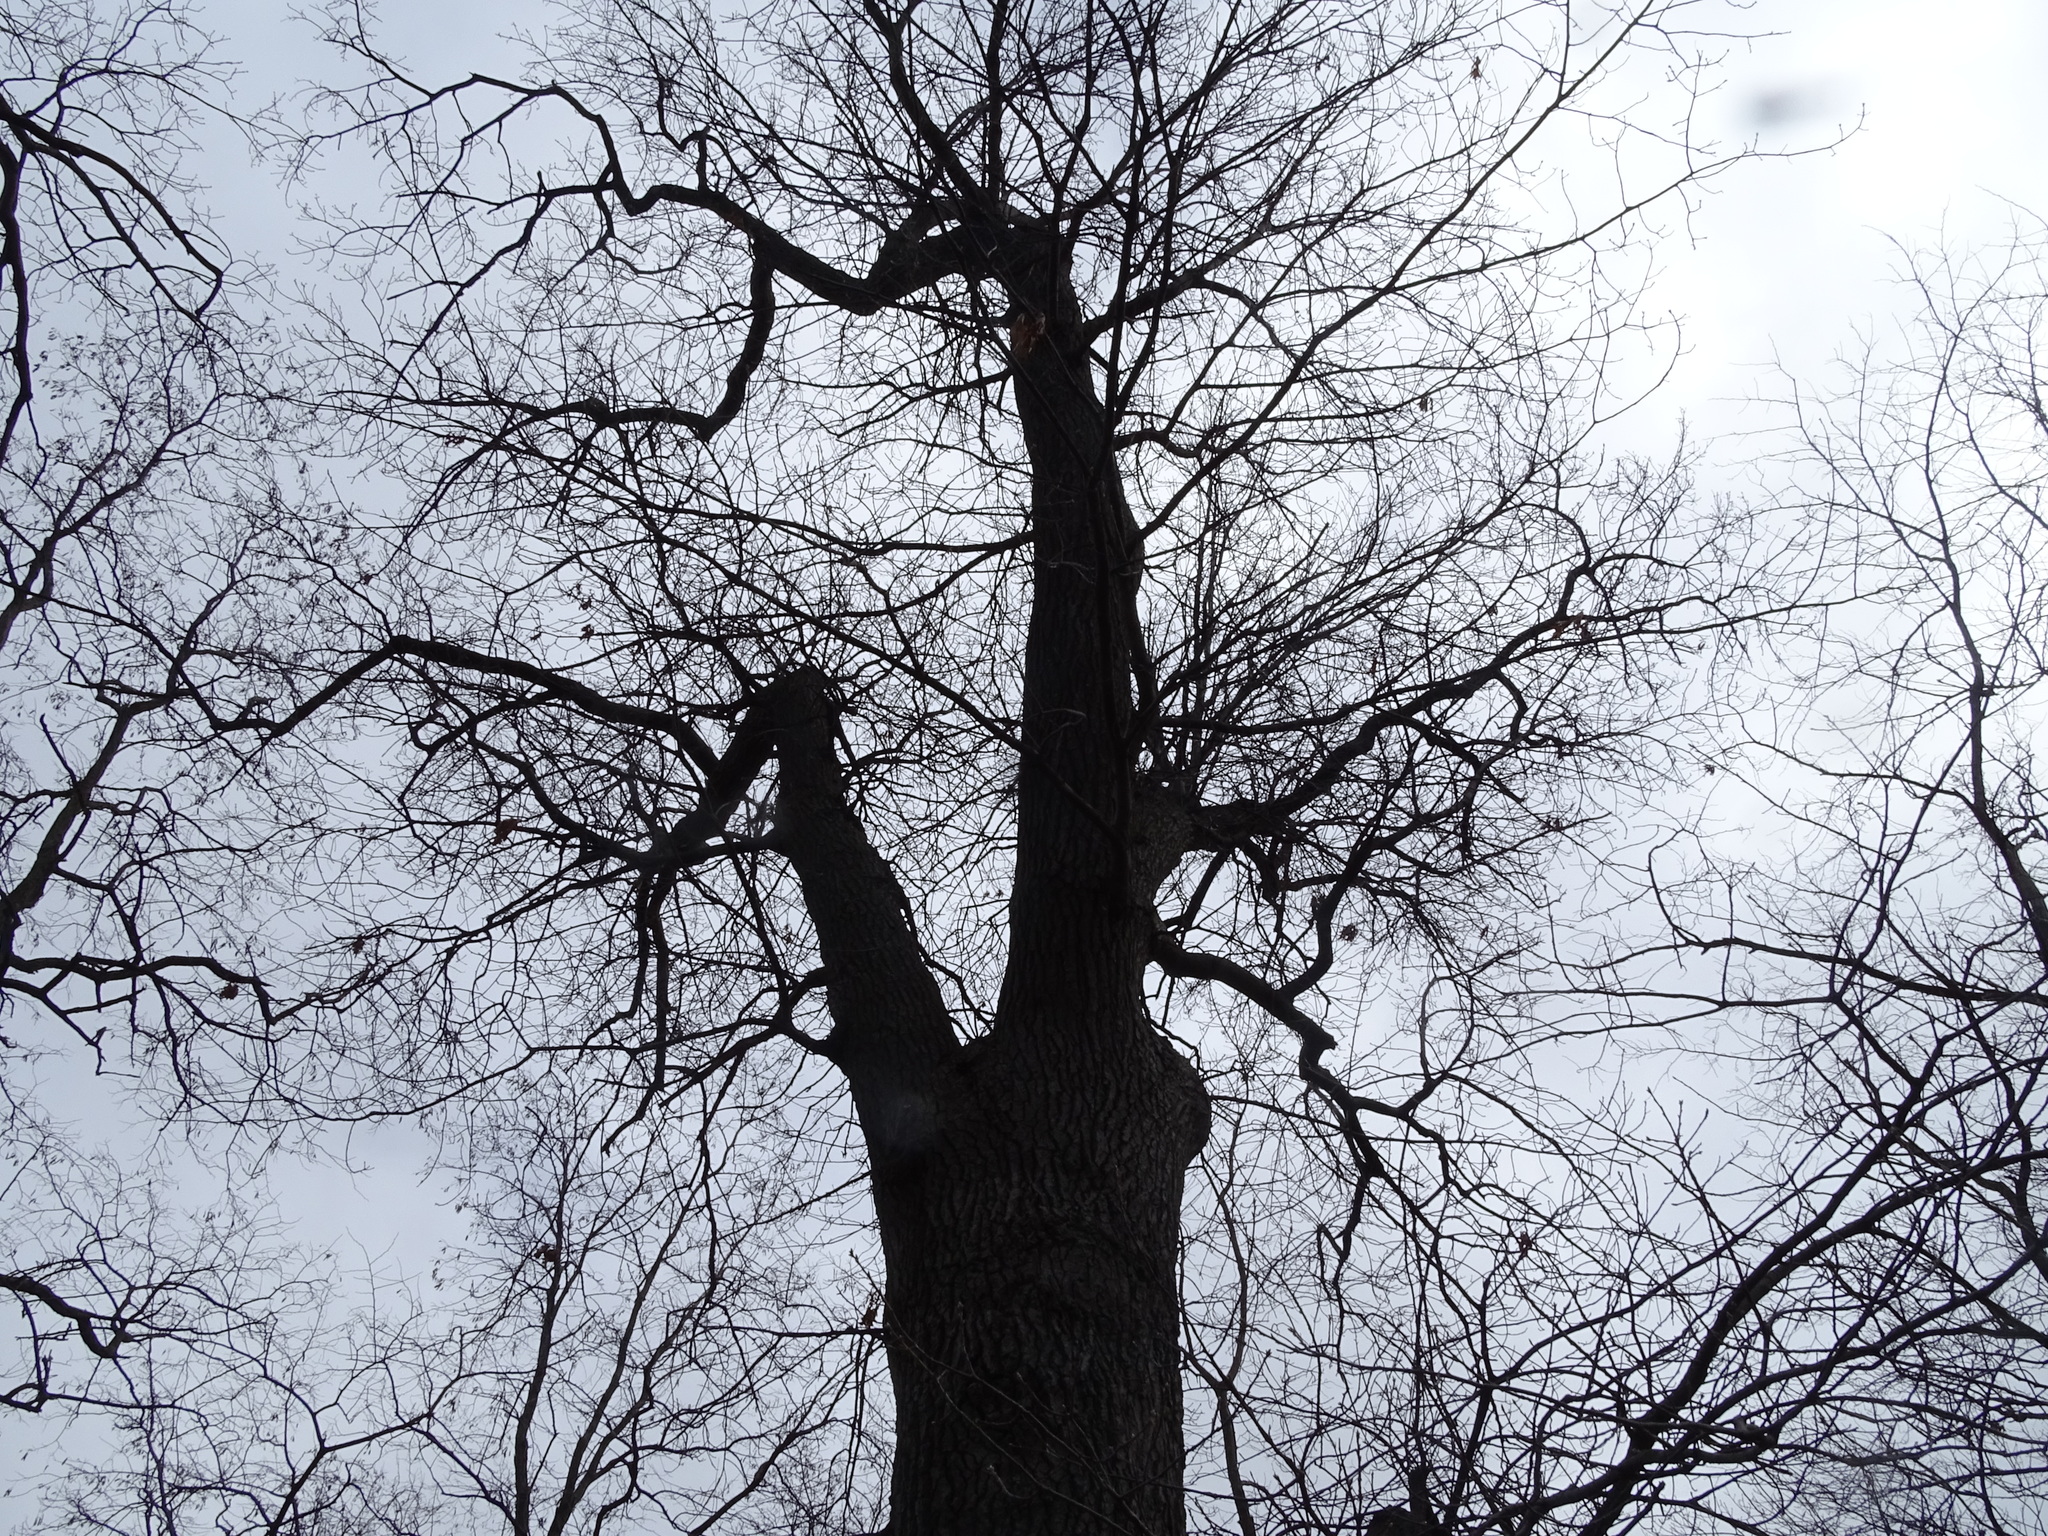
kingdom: Plantae
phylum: Tracheophyta
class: Magnoliopsida
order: Fagales
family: Fagaceae
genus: Quercus
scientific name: Quercus velutina
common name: Black oak
